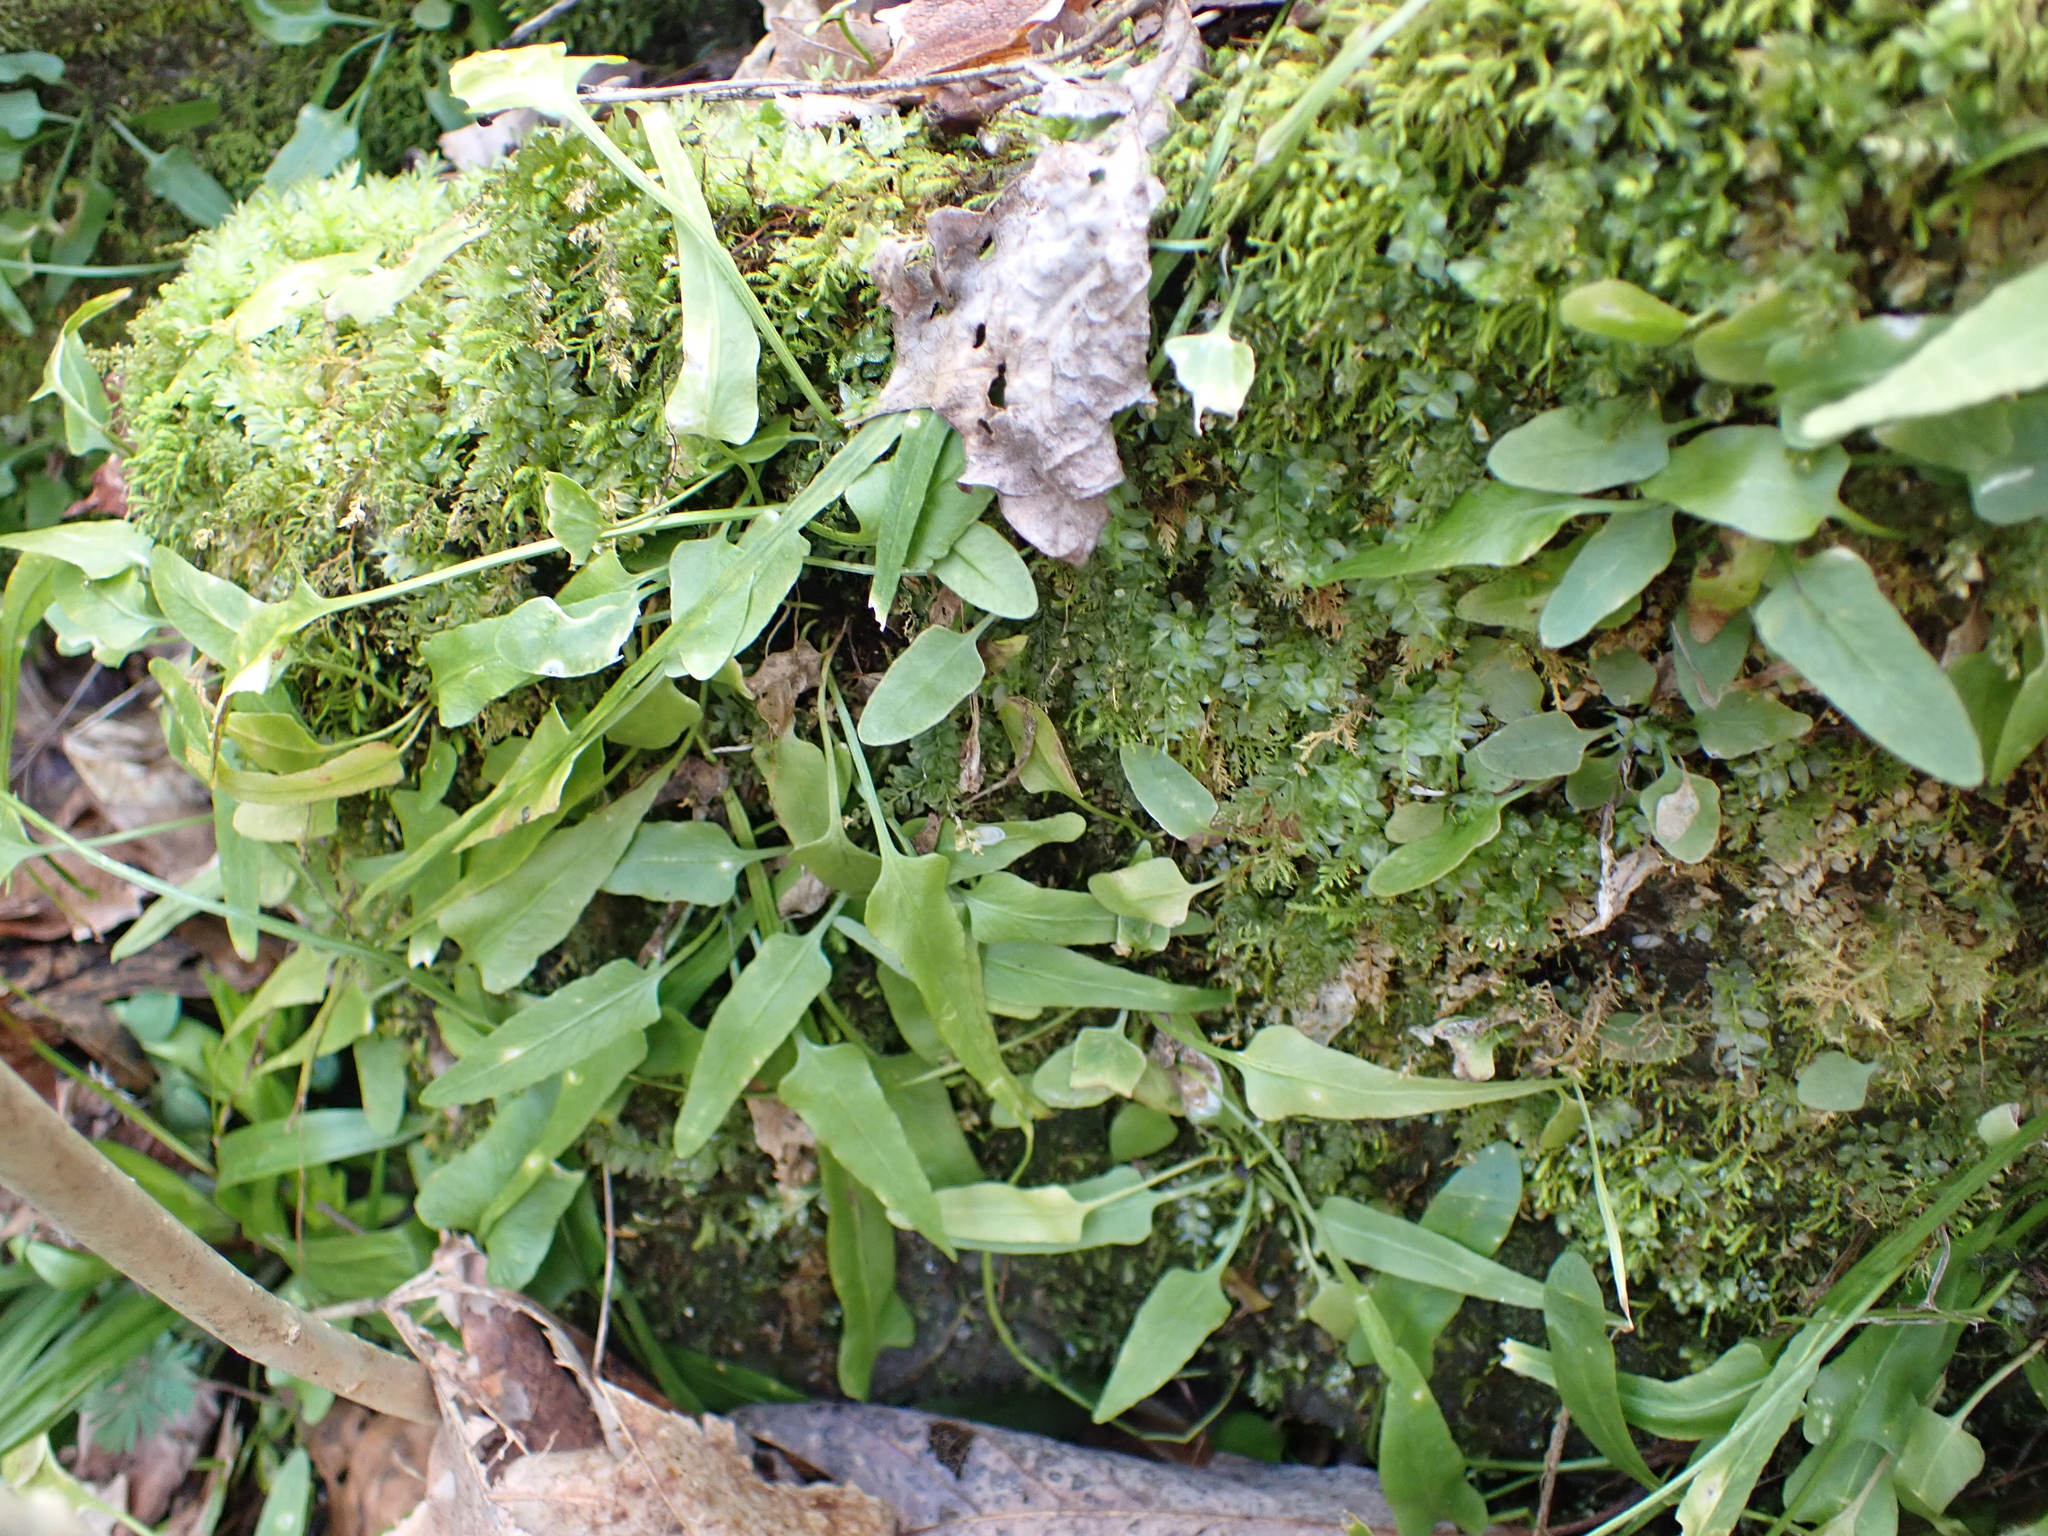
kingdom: Plantae
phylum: Tracheophyta
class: Polypodiopsida
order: Polypodiales
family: Aspleniaceae
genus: Asplenium
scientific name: Asplenium rhizophyllum
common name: Walking fern
